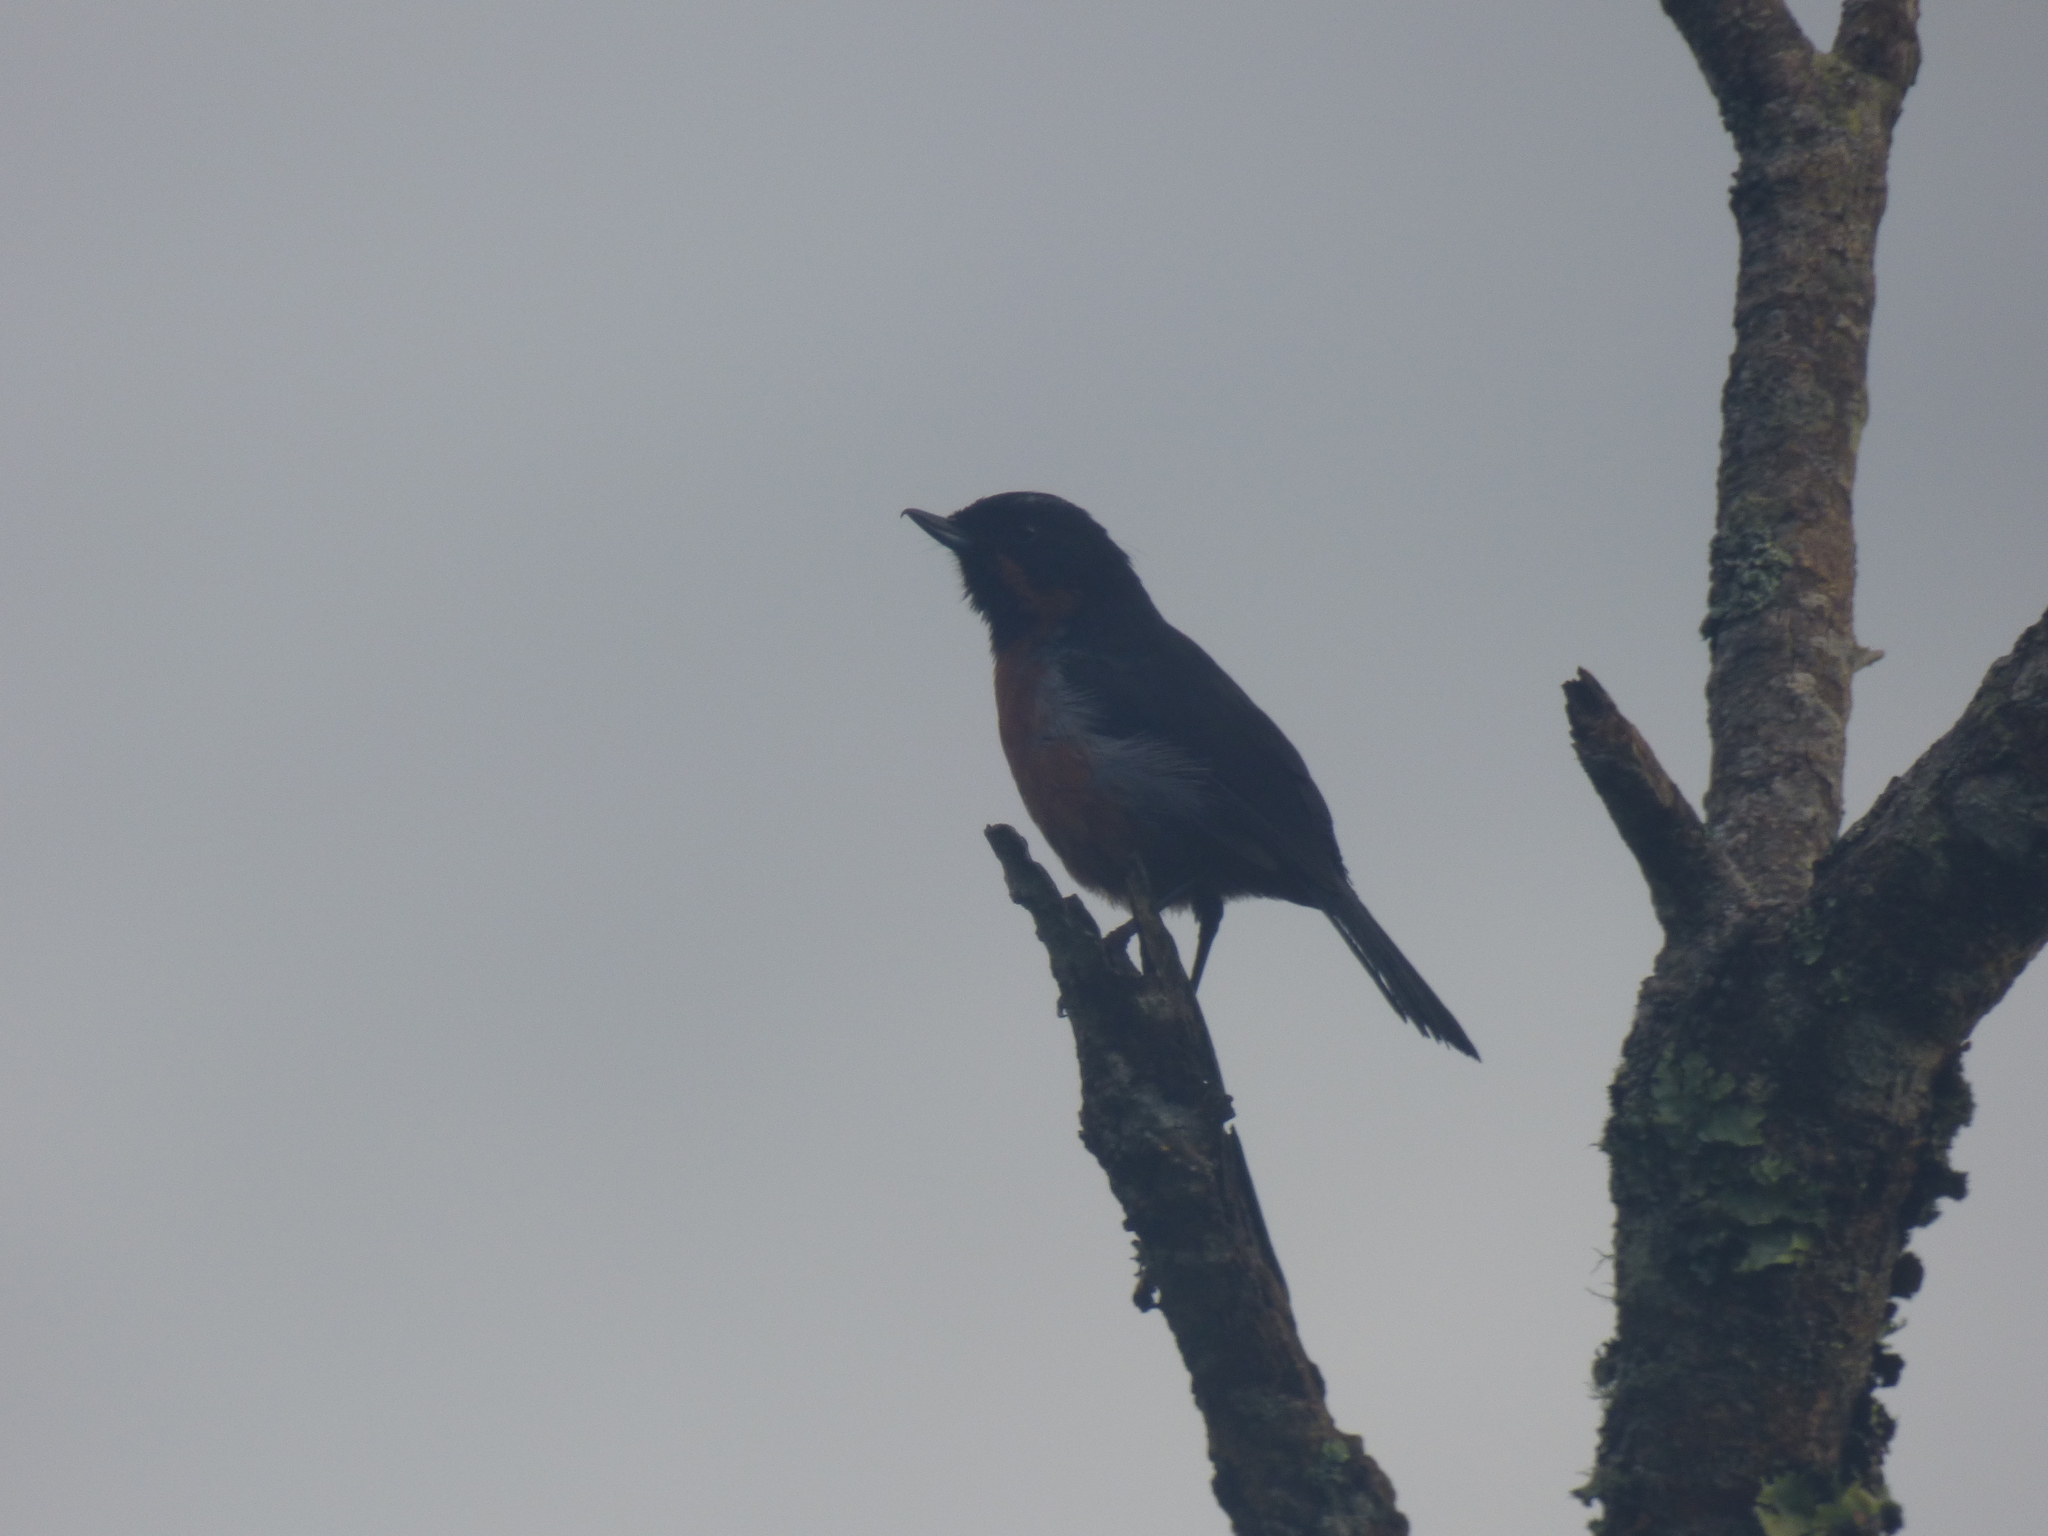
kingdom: Animalia
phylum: Chordata
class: Aves
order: Passeriformes
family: Thraupidae
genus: Diglossa
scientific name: Diglossa brunneiventris
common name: Black-throated flowerpiercer
